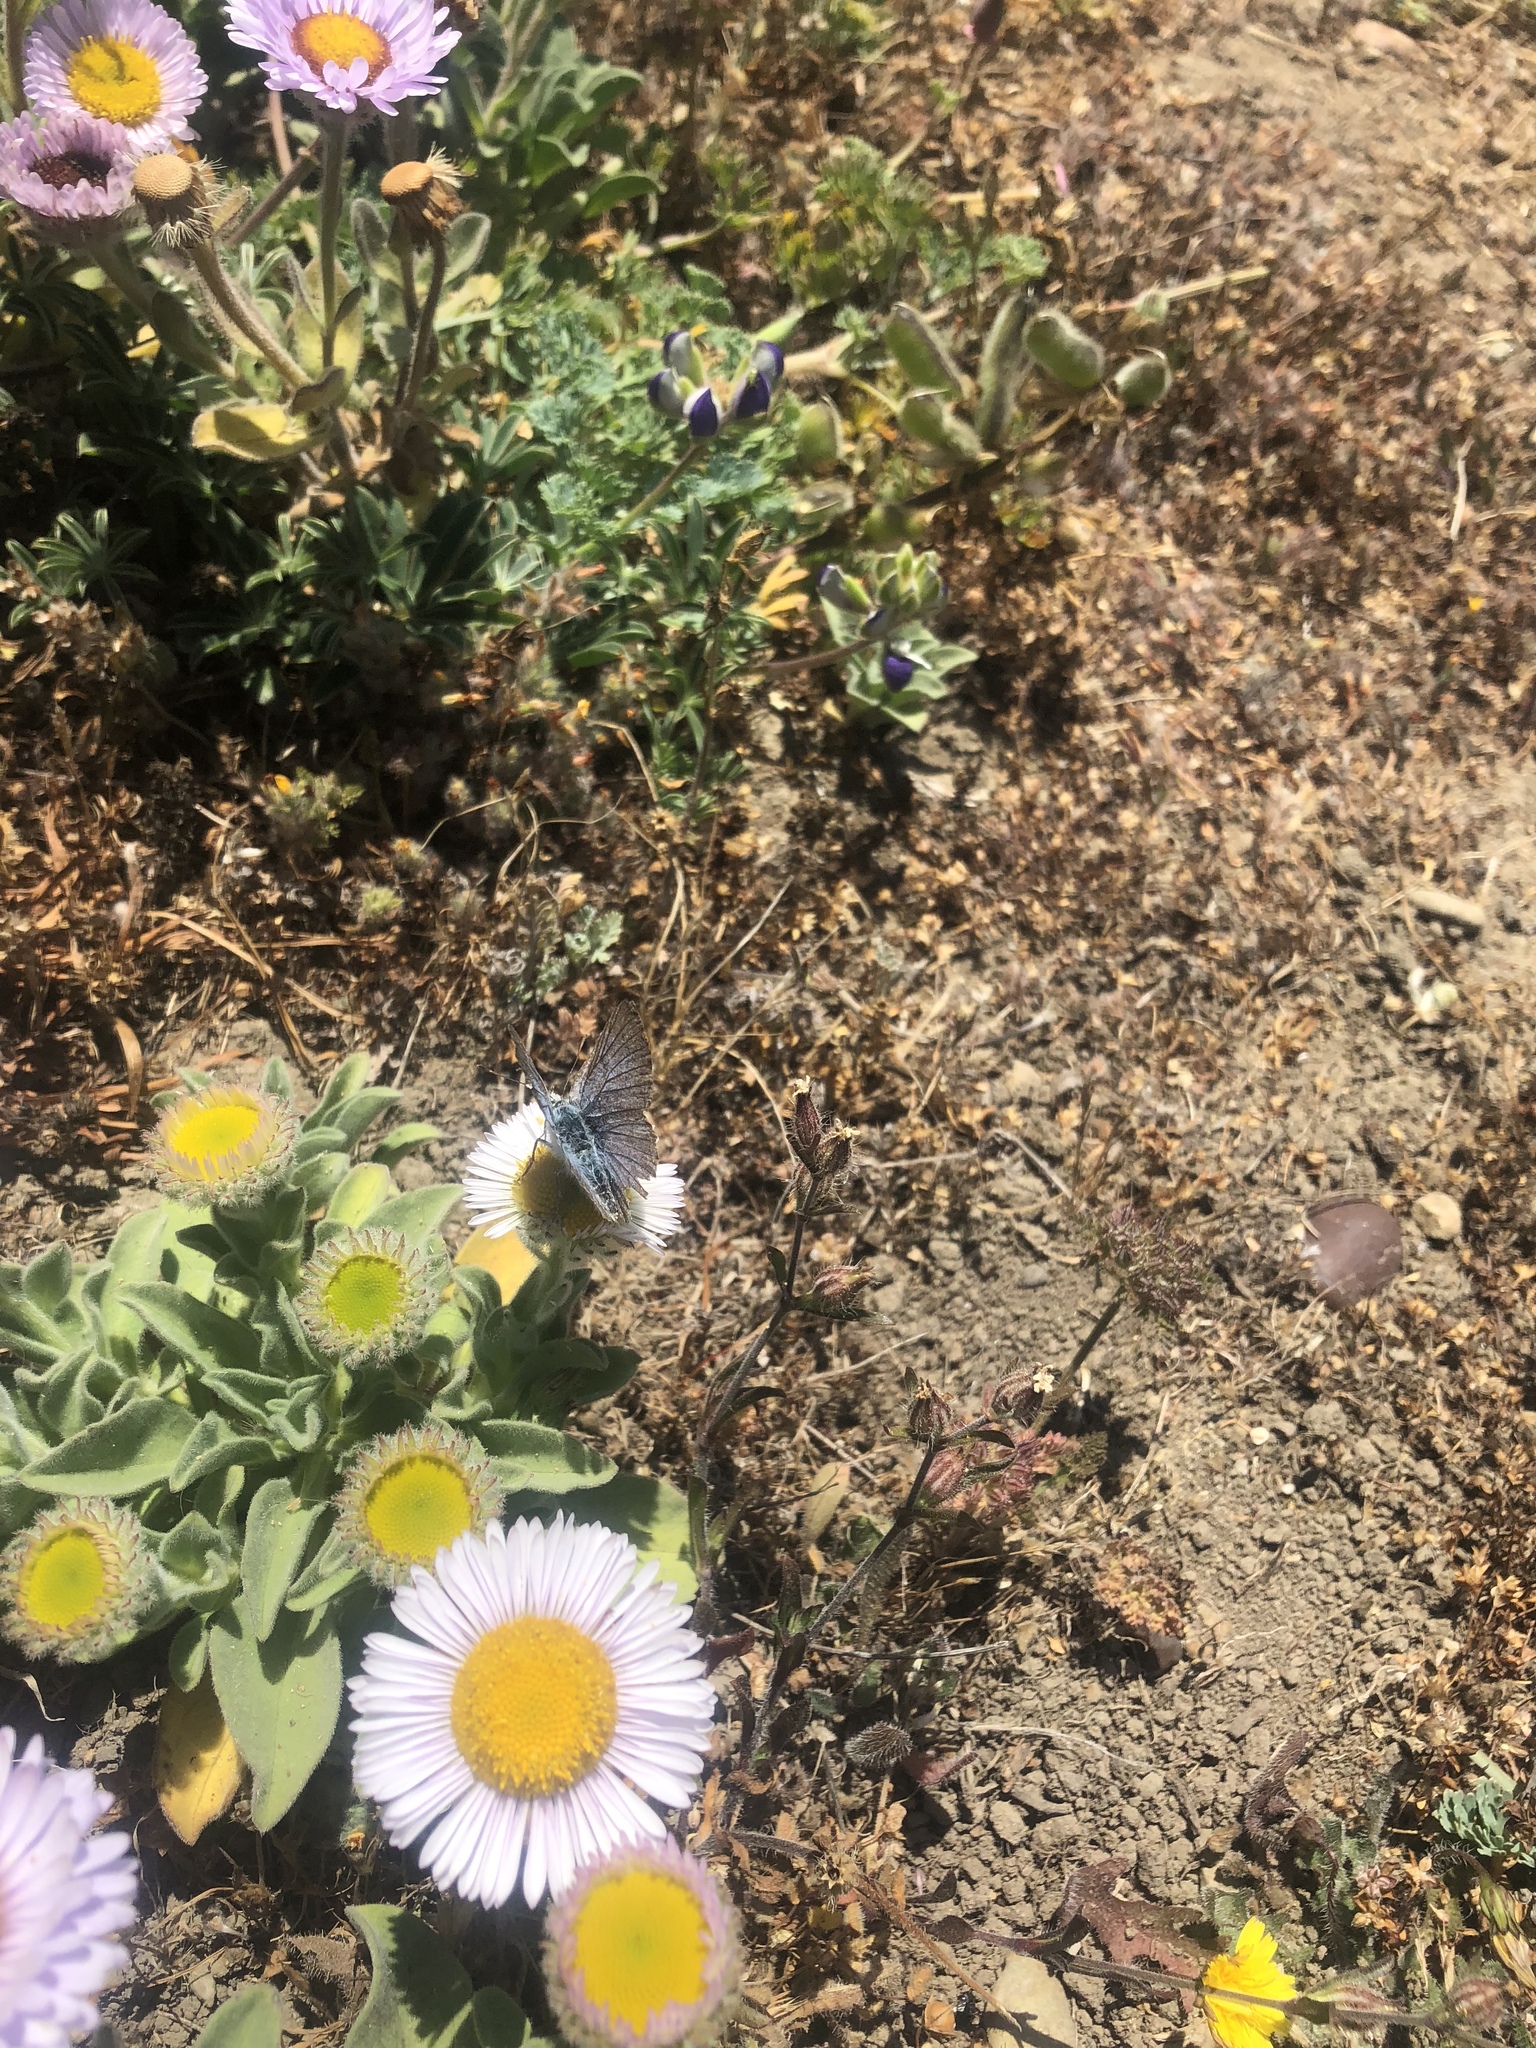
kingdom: Plantae
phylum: Tracheophyta
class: Magnoliopsida
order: Asterales
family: Asteraceae
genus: Erigeron
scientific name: Erigeron glaucus
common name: Seaside daisy
